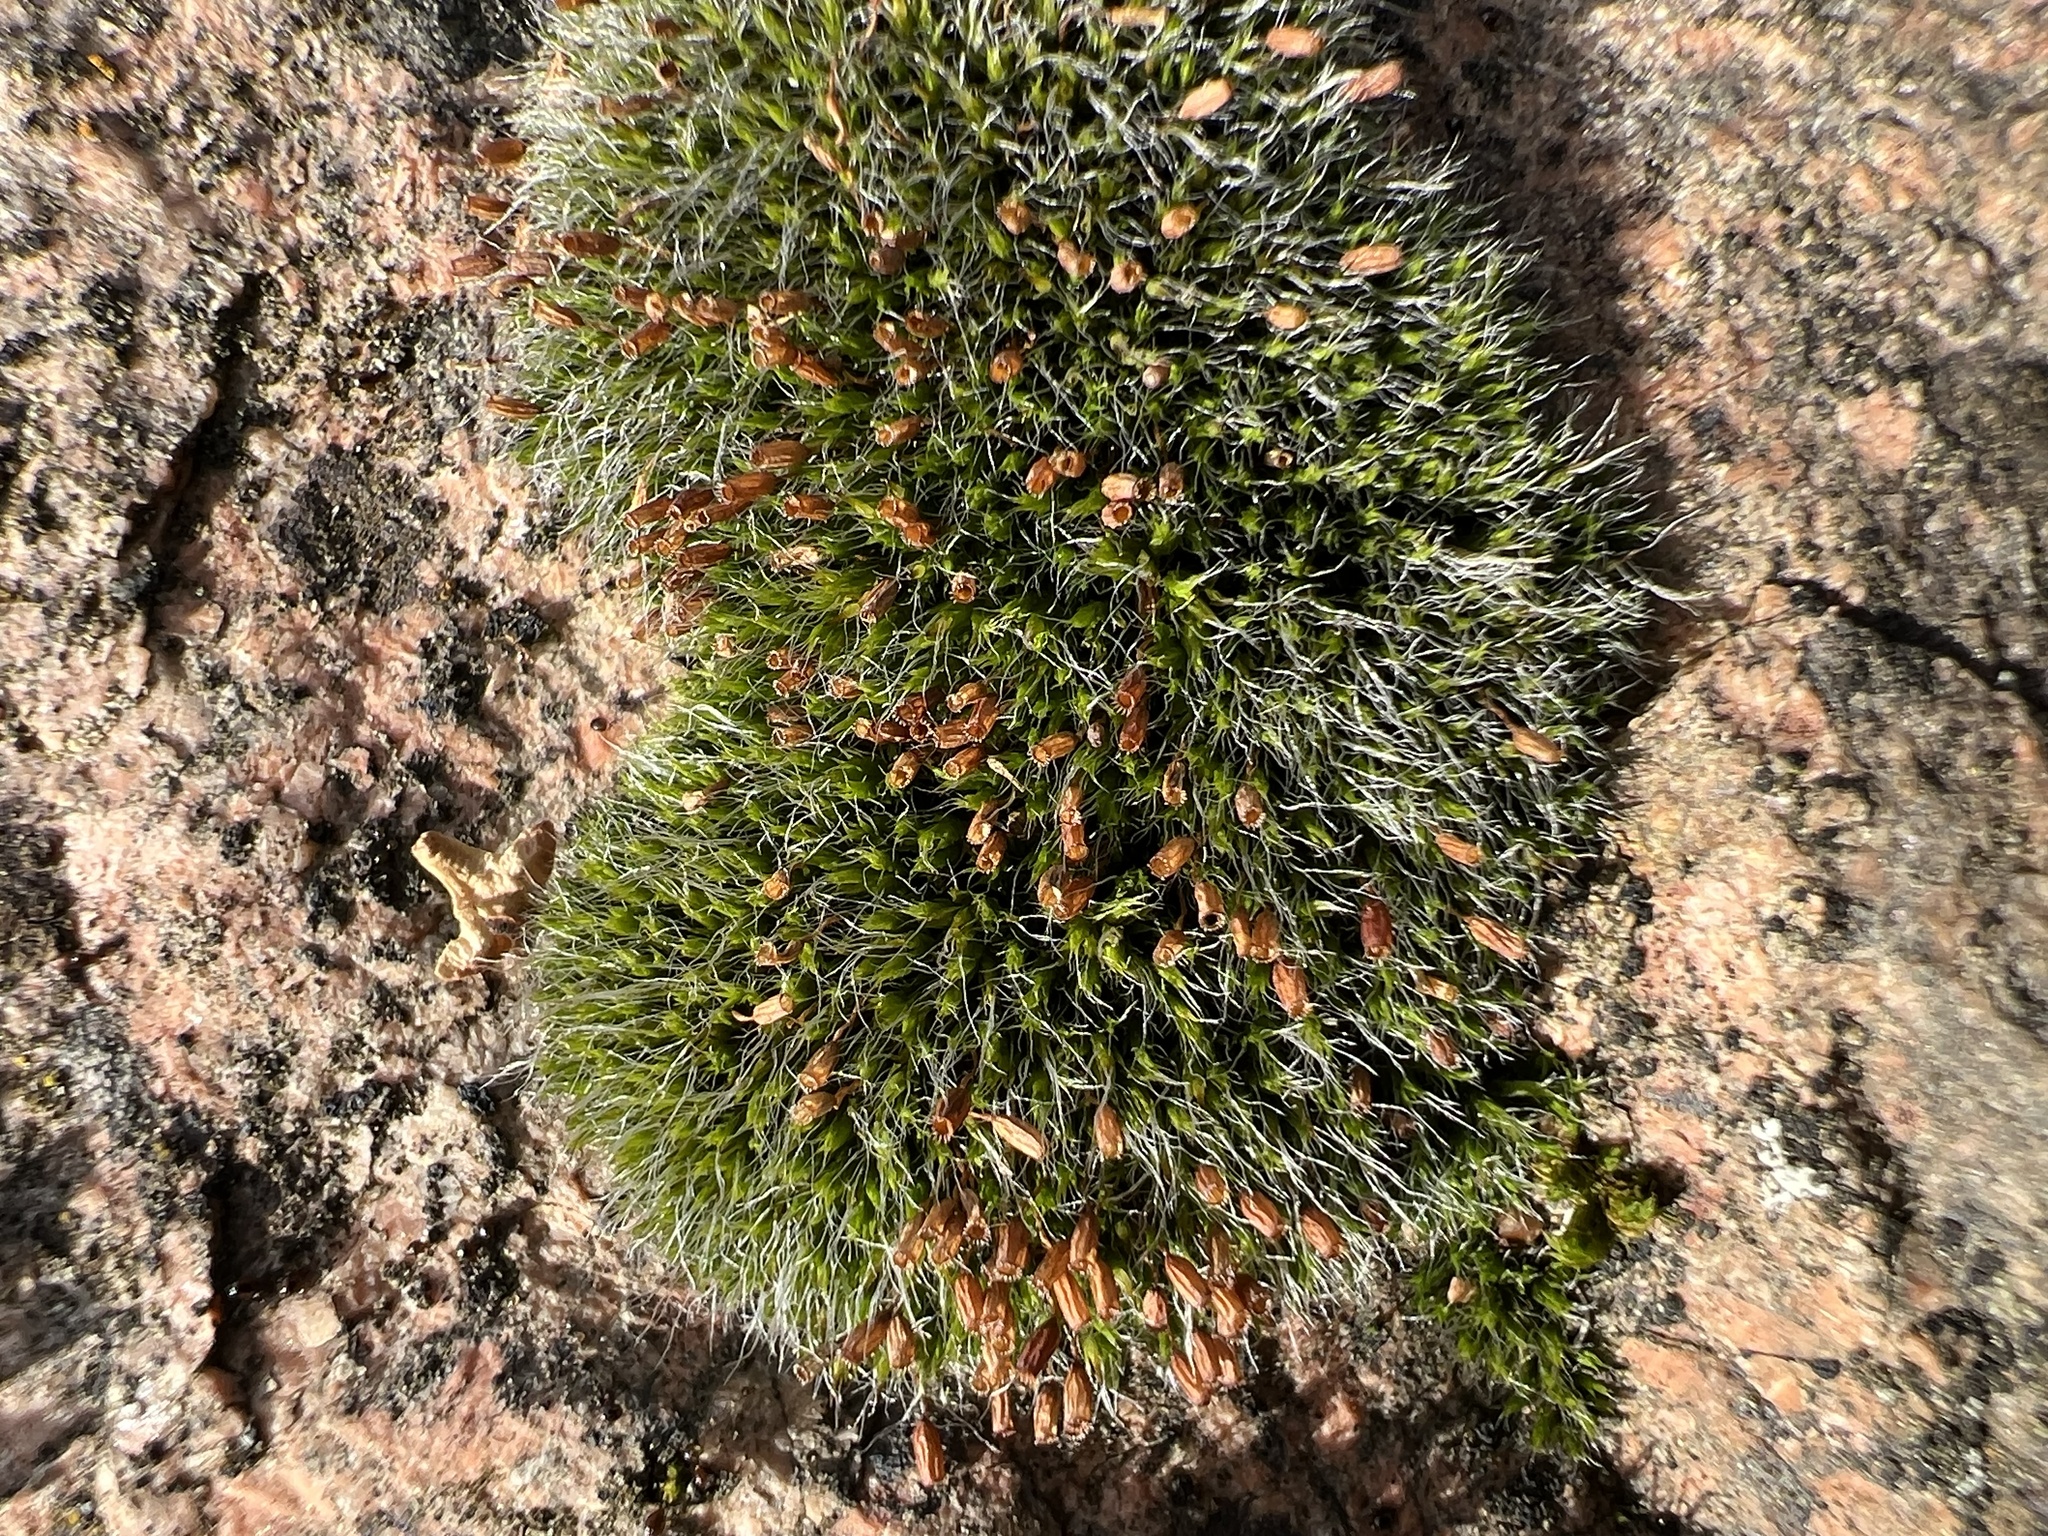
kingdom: Plantae
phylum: Bryophyta
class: Bryopsida
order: Grimmiales
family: Grimmiaceae
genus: Grimmia
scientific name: Grimmia pulvinata
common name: Grey-cushioned grimmia
